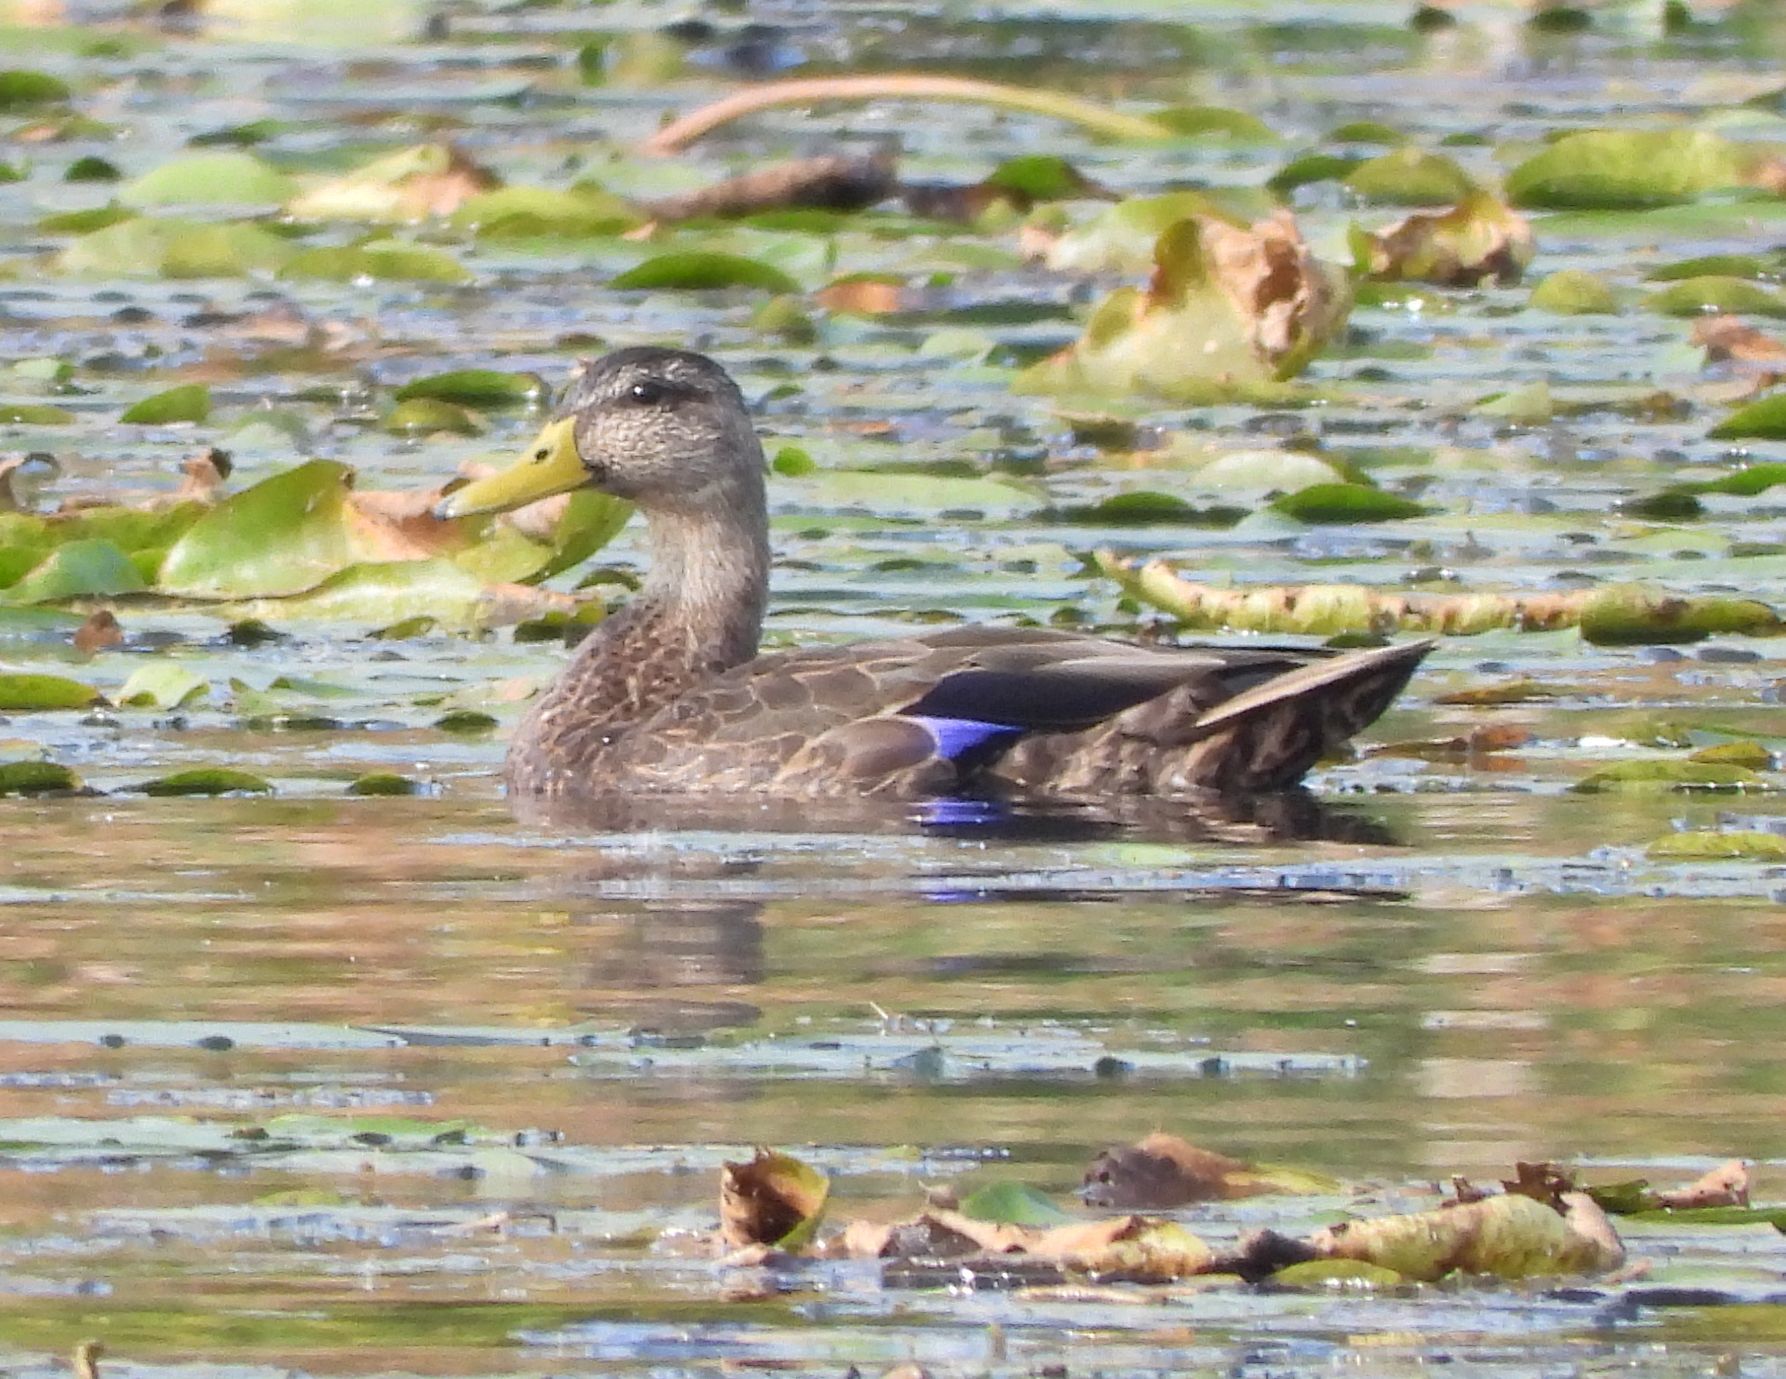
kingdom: Animalia
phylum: Chordata
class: Aves
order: Anseriformes
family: Anatidae
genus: Anas
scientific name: Anas rubripes
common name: American black duck
